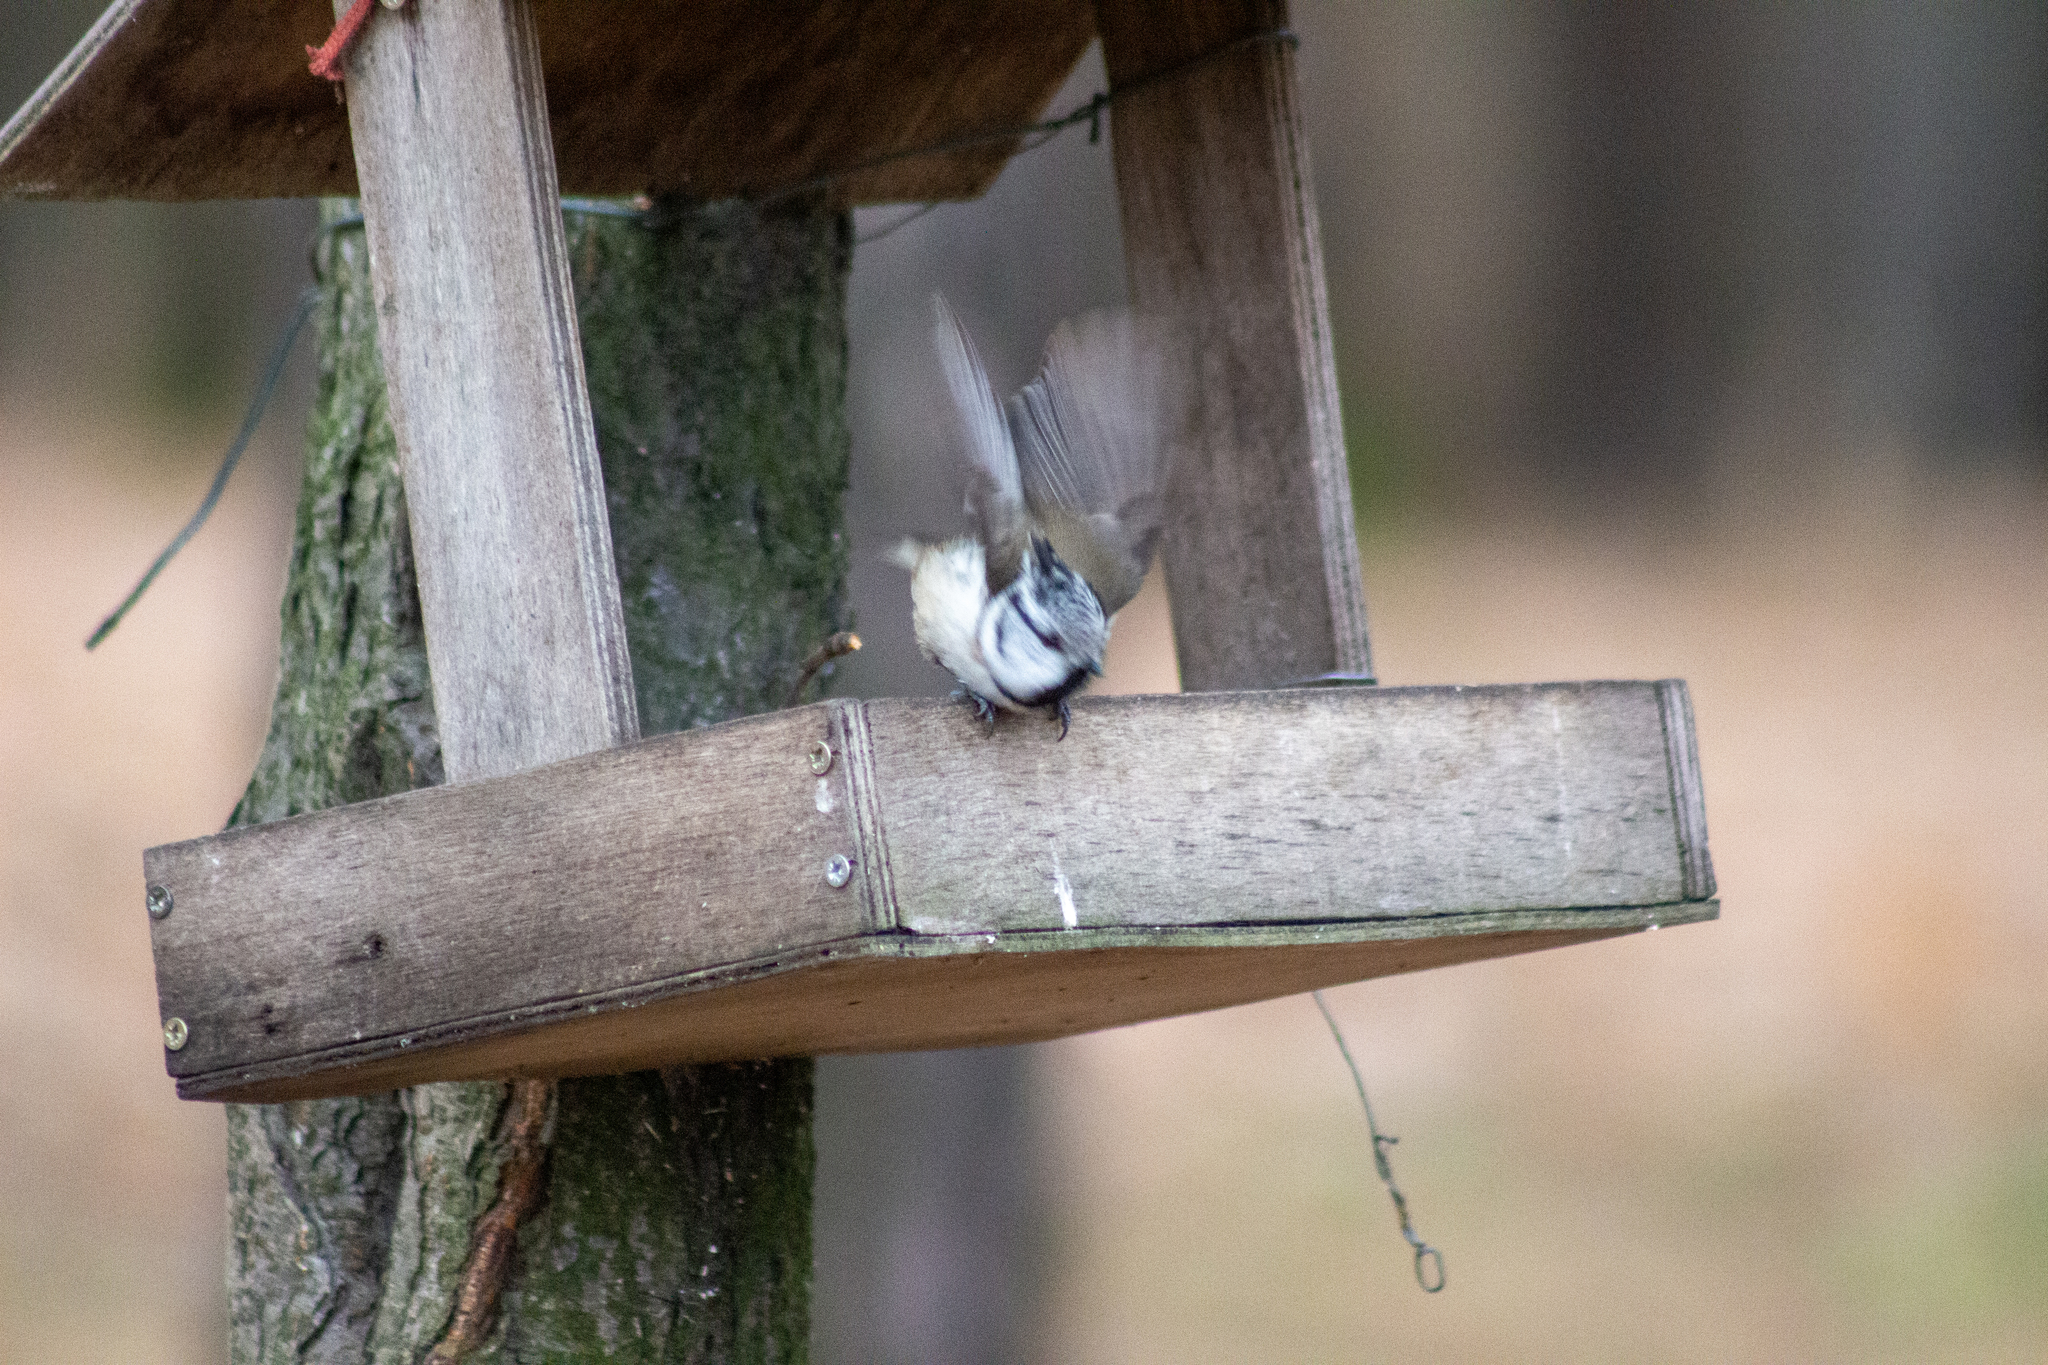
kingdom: Animalia
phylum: Chordata
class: Aves
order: Passeriformes
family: Paridae
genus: Lophophanes
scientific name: Lophophanes cristatus
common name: European crested tit
